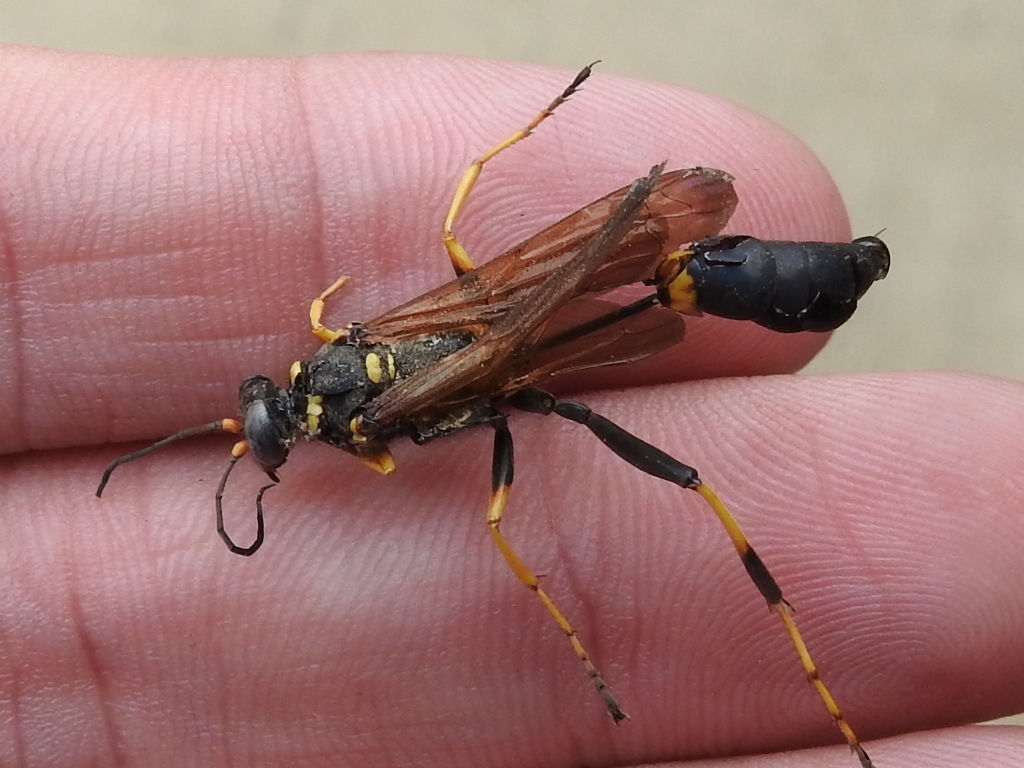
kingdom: Animalia
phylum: Arthropoda
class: Insecta
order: Hymenoptera
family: Sphecidae
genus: Sceliphron
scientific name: Sceliphron caementarium
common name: Mud dauber
